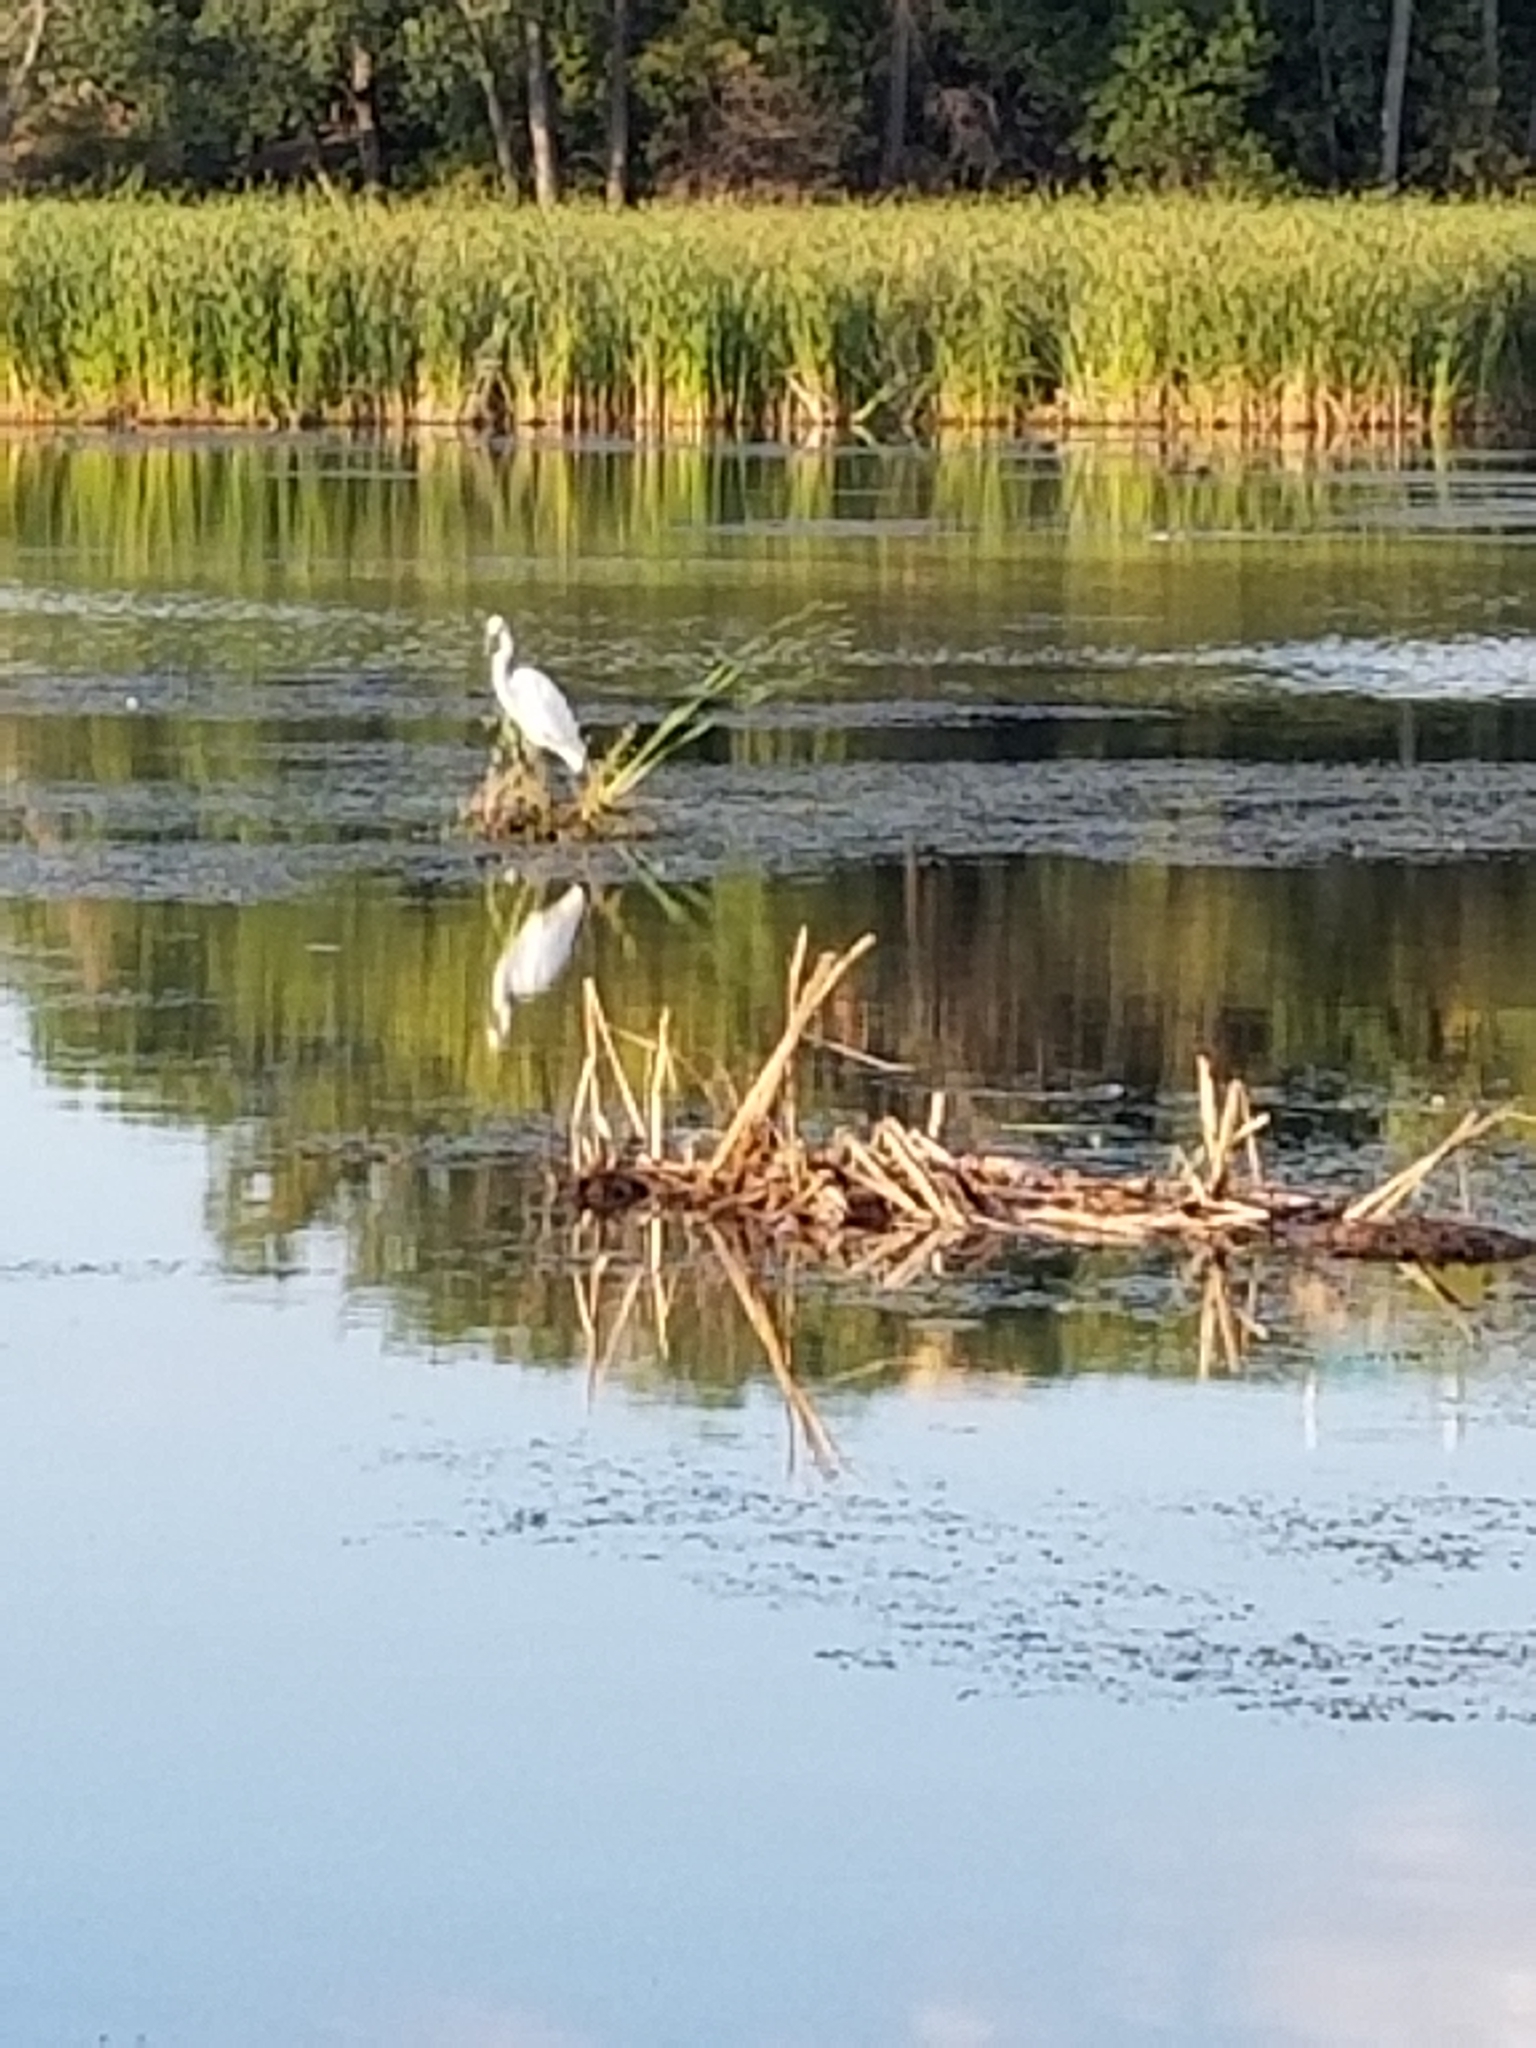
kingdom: Animalia
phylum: Chordata
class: Aves
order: Pelecaniformes
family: Ardeidae
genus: Ardea
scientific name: Ardea alba
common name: Great egret
